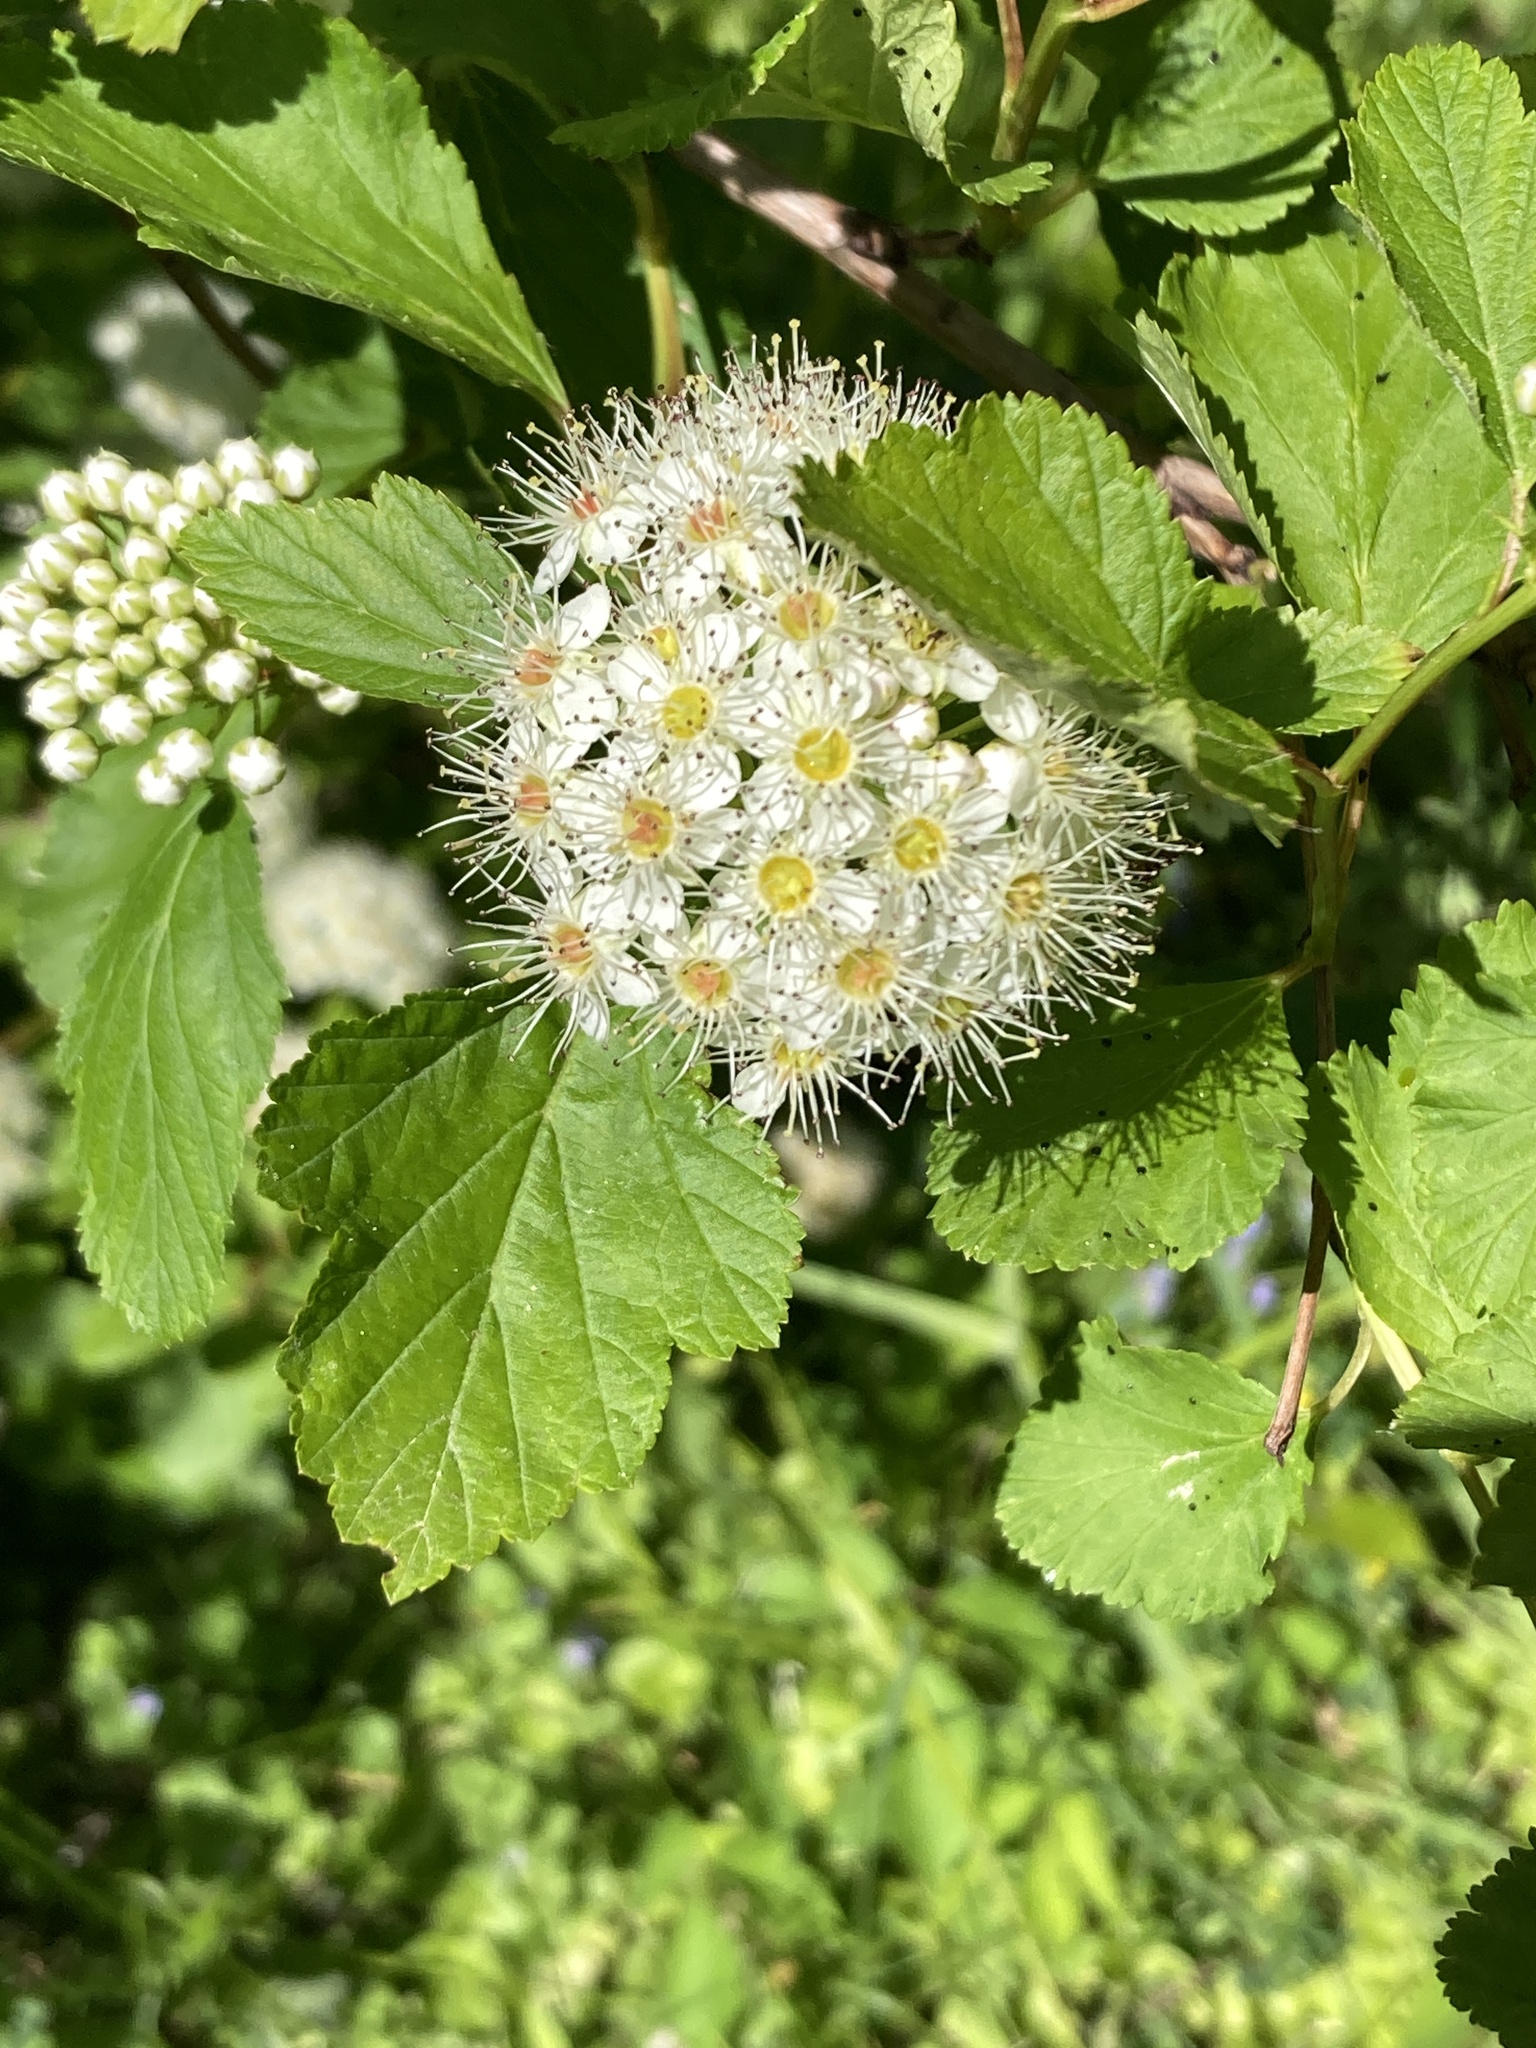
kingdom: Plantae
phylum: Tracheophyta
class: Magnoliopsida
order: Rosales
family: Rosaceae
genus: Physocarpus
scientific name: Physocarpus opulifolius
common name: Ninebark
